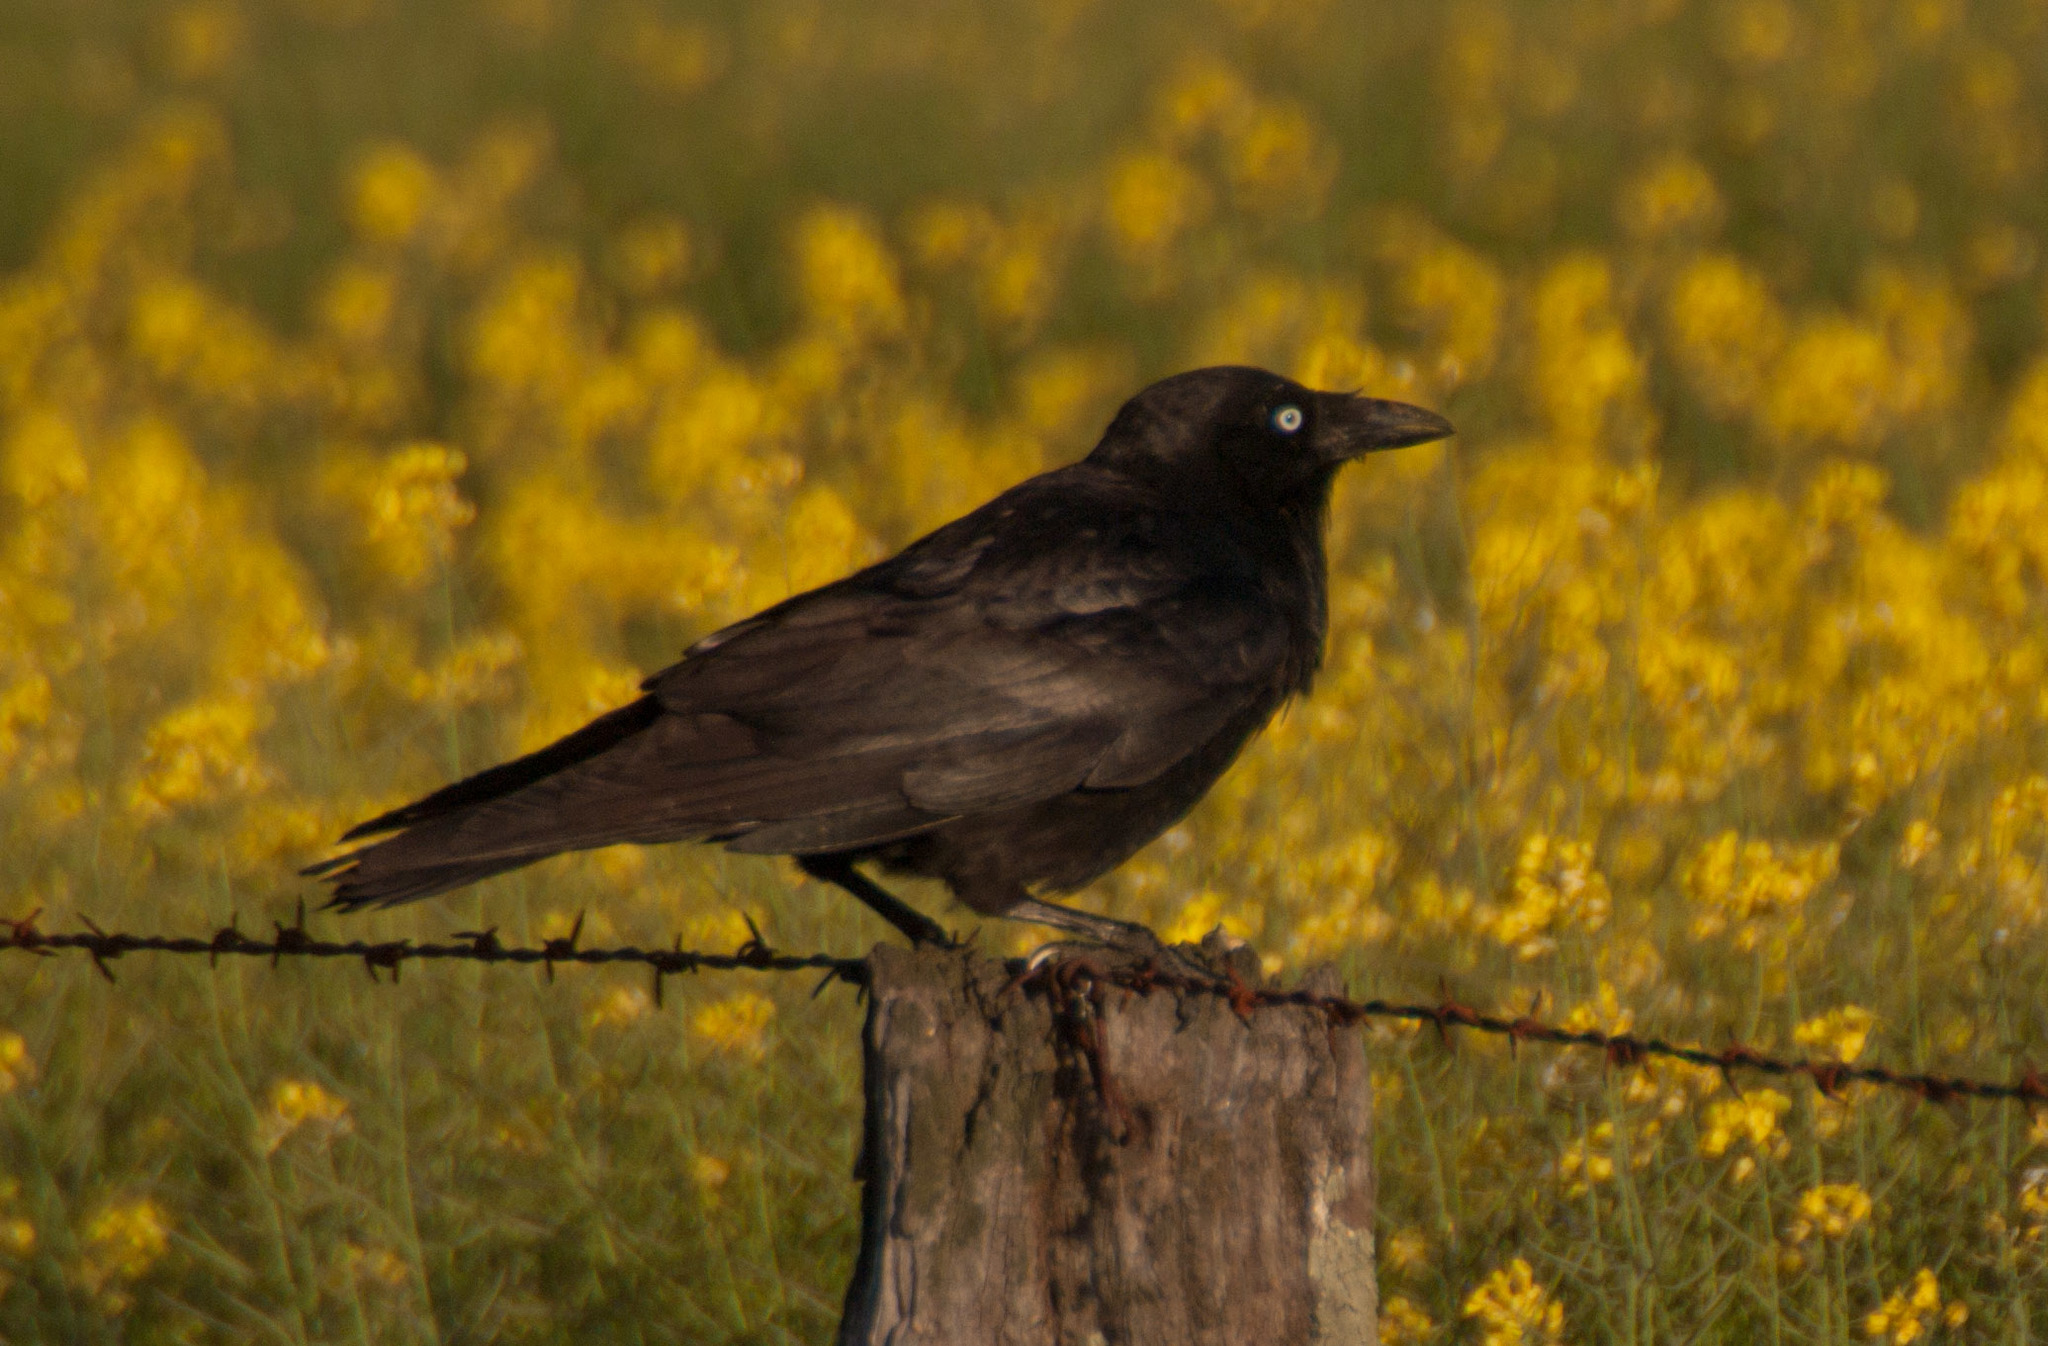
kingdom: Animalia
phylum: Chordata
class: Aves
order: Passeriformes
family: Corvidae
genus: Corvus
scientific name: Corvus
